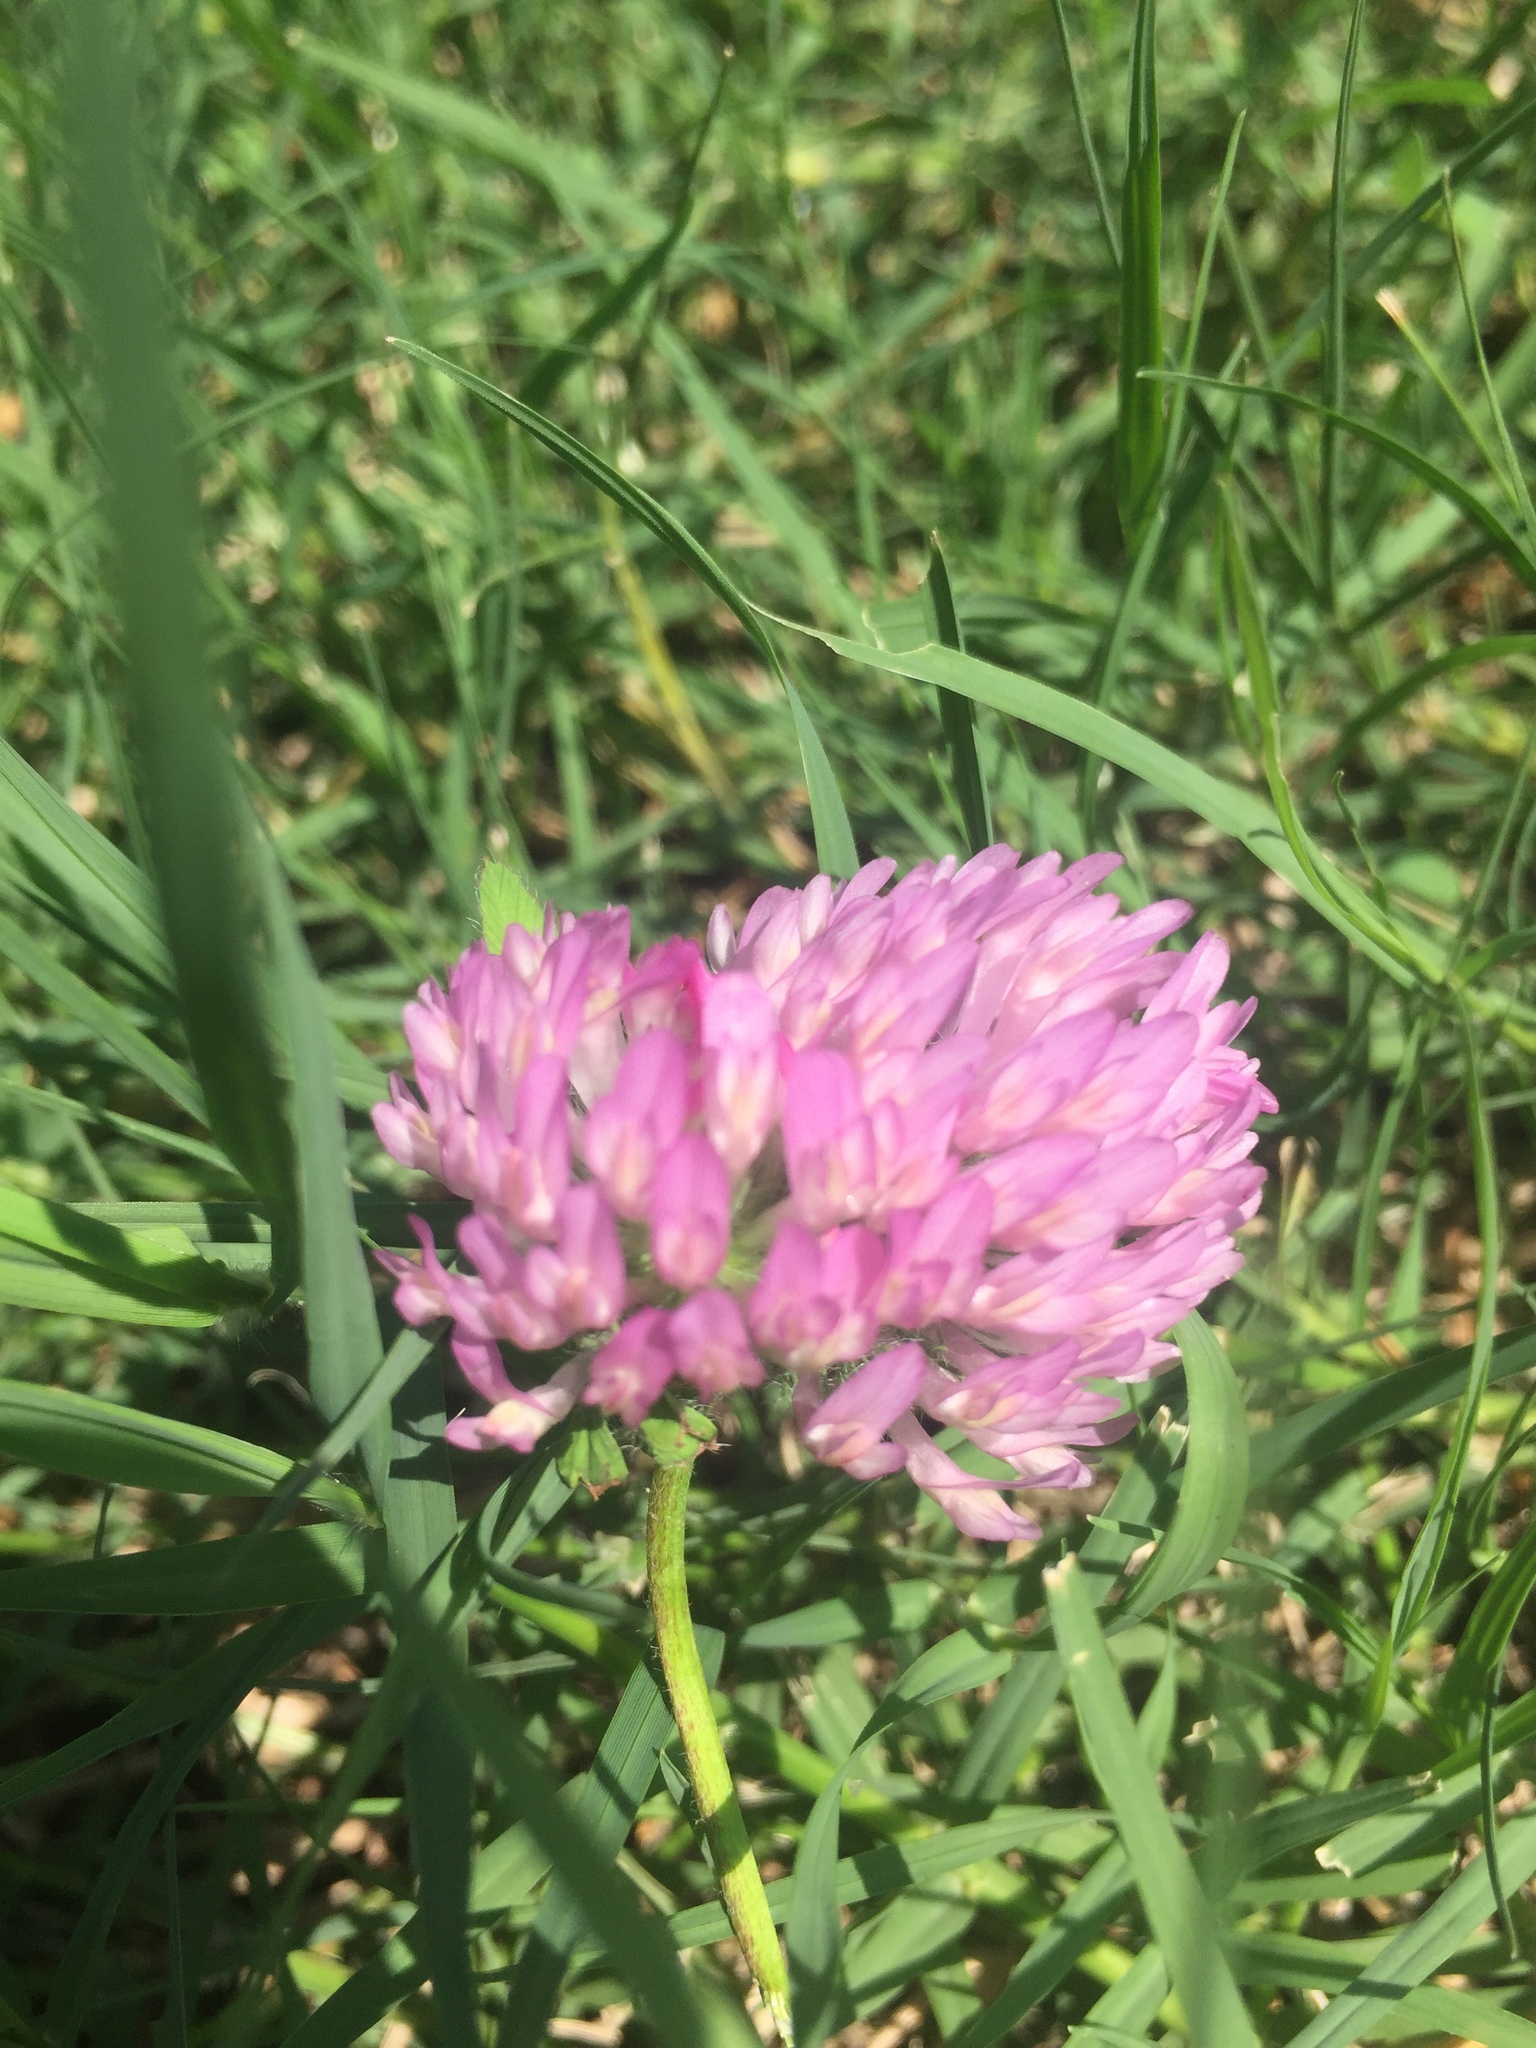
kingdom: Plantae
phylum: Tracheophyta
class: Magnoliopsida
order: Fabales
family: Fabaceae
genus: Trifolium
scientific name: Trifolium pratense
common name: Red clover
